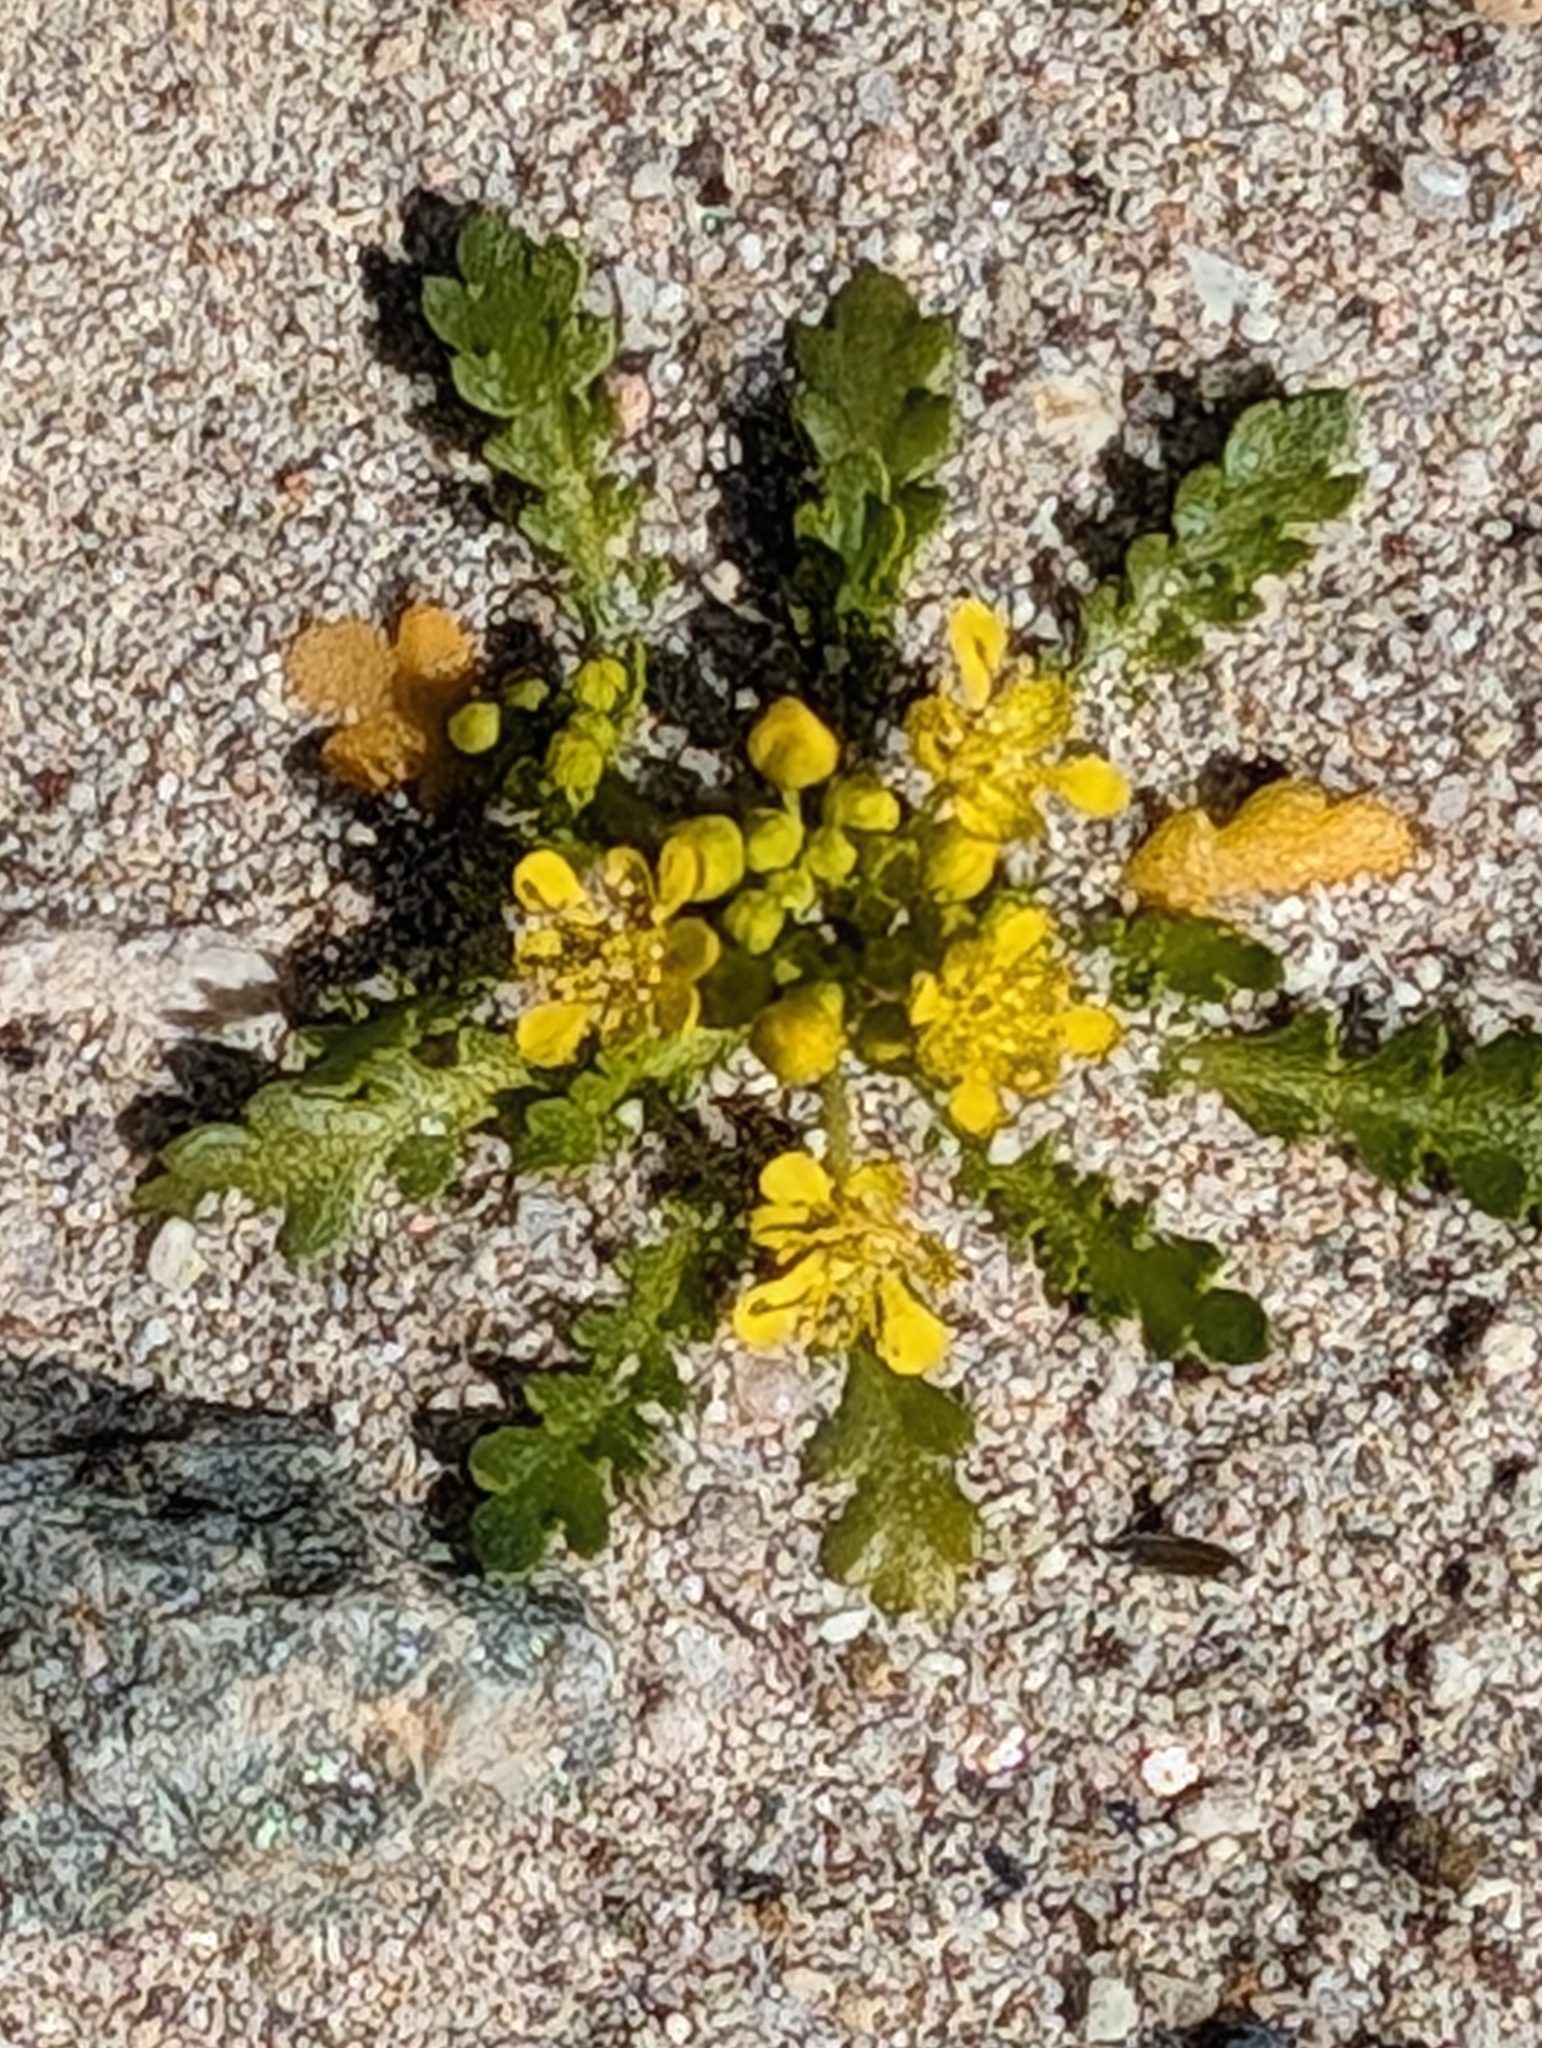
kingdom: Plantae
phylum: Tracheophyta
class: Magnoliopsida
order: Brassicales
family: Brassicaceae
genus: Lepidium
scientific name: Lepidium flavum
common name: Yellow pepperwort
